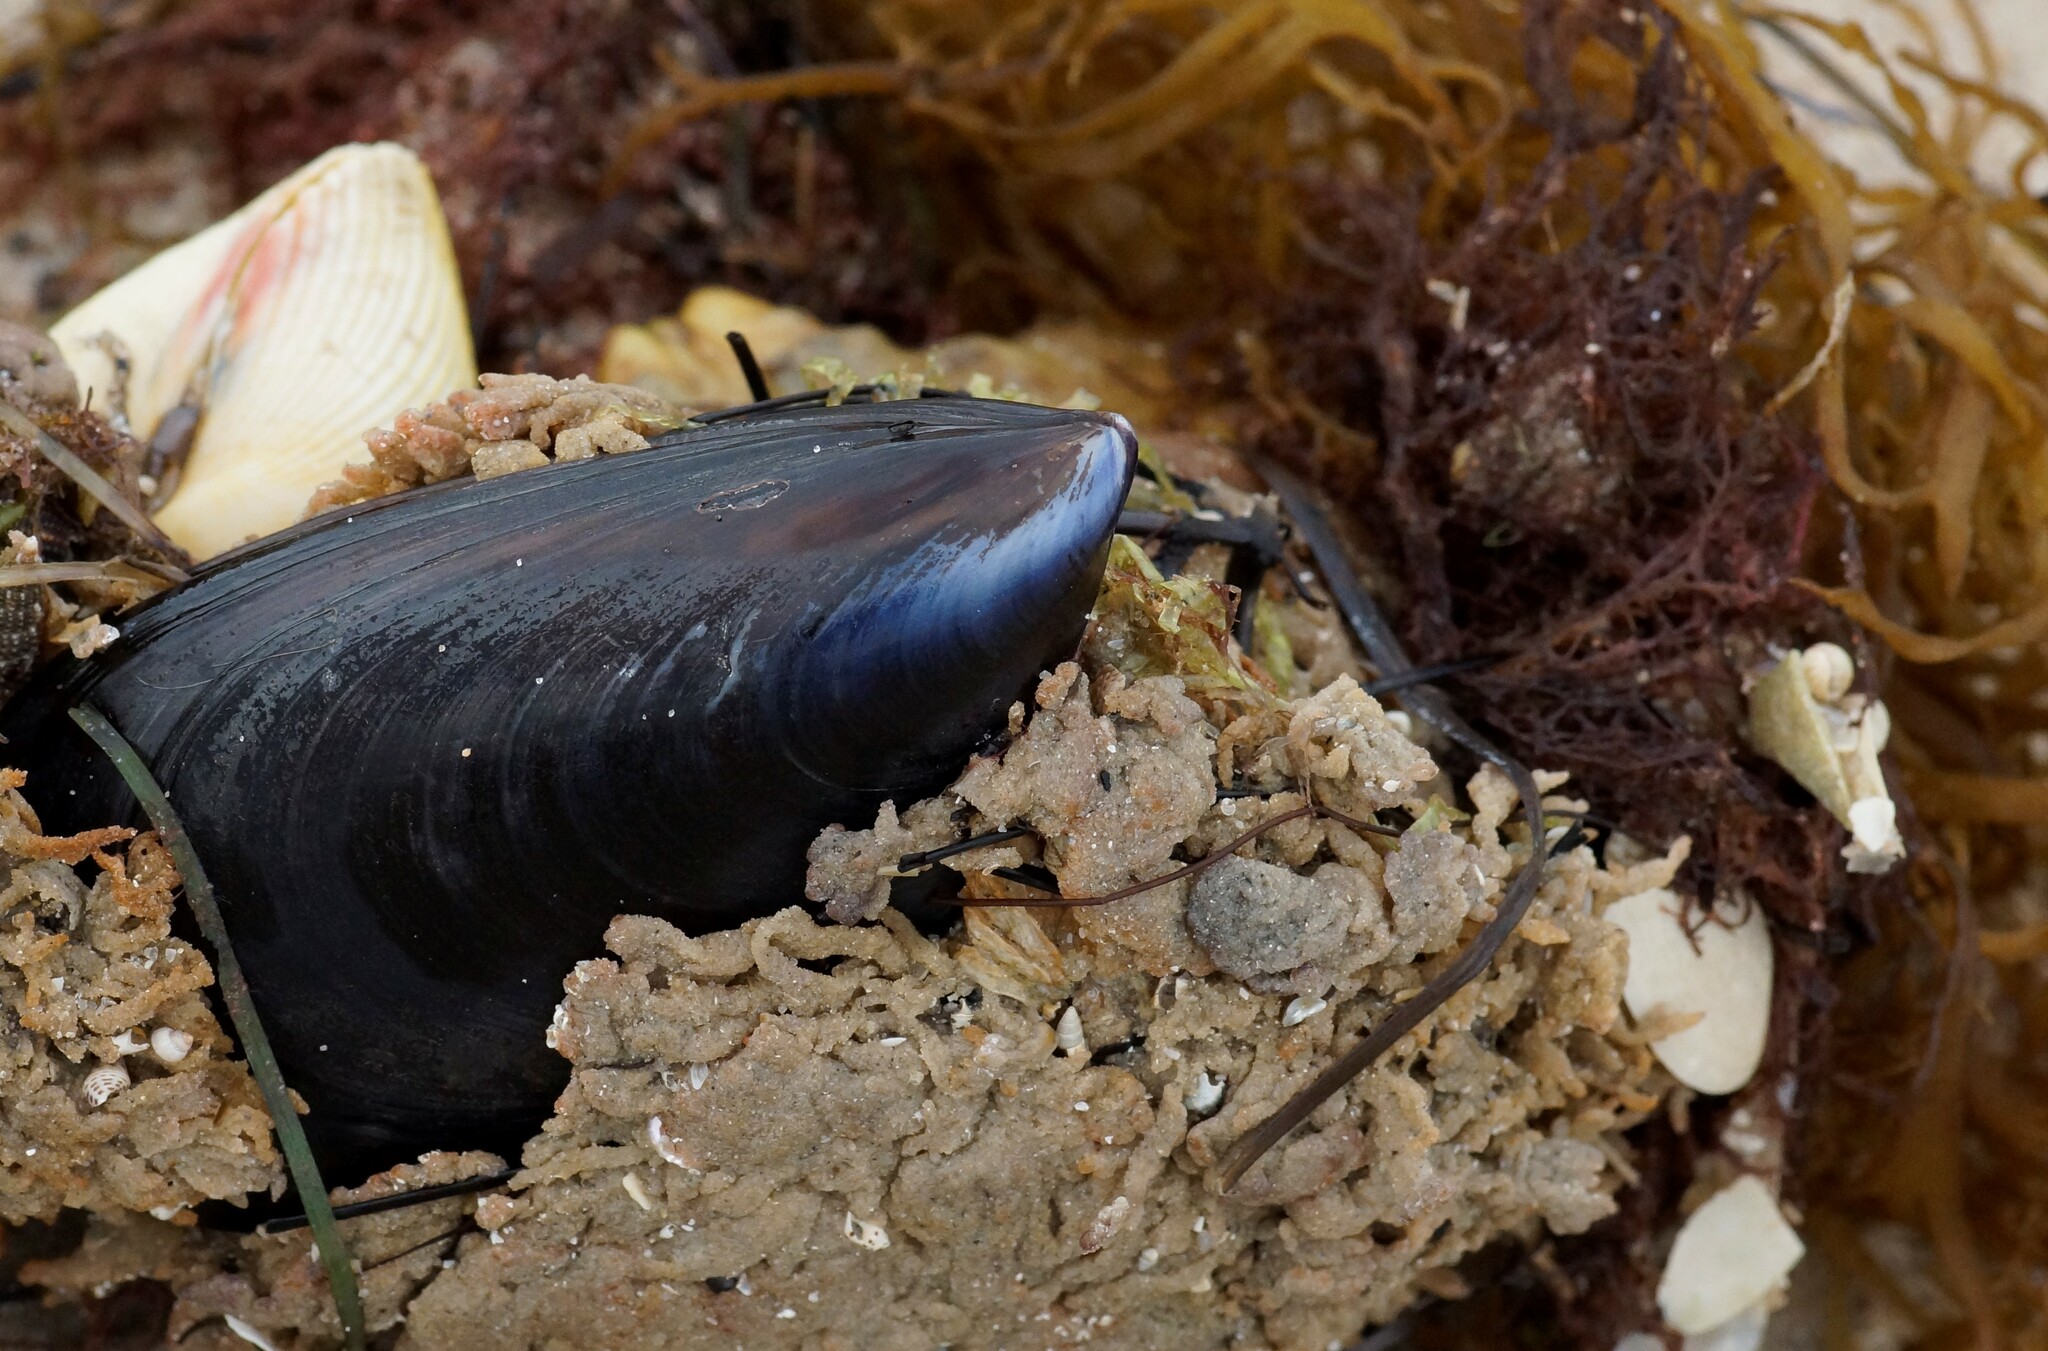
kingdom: Animalia
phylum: Mollusca
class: Bivalvia
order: Mytilida
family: Mytilidae
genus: Mytilus
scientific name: Mytilus
